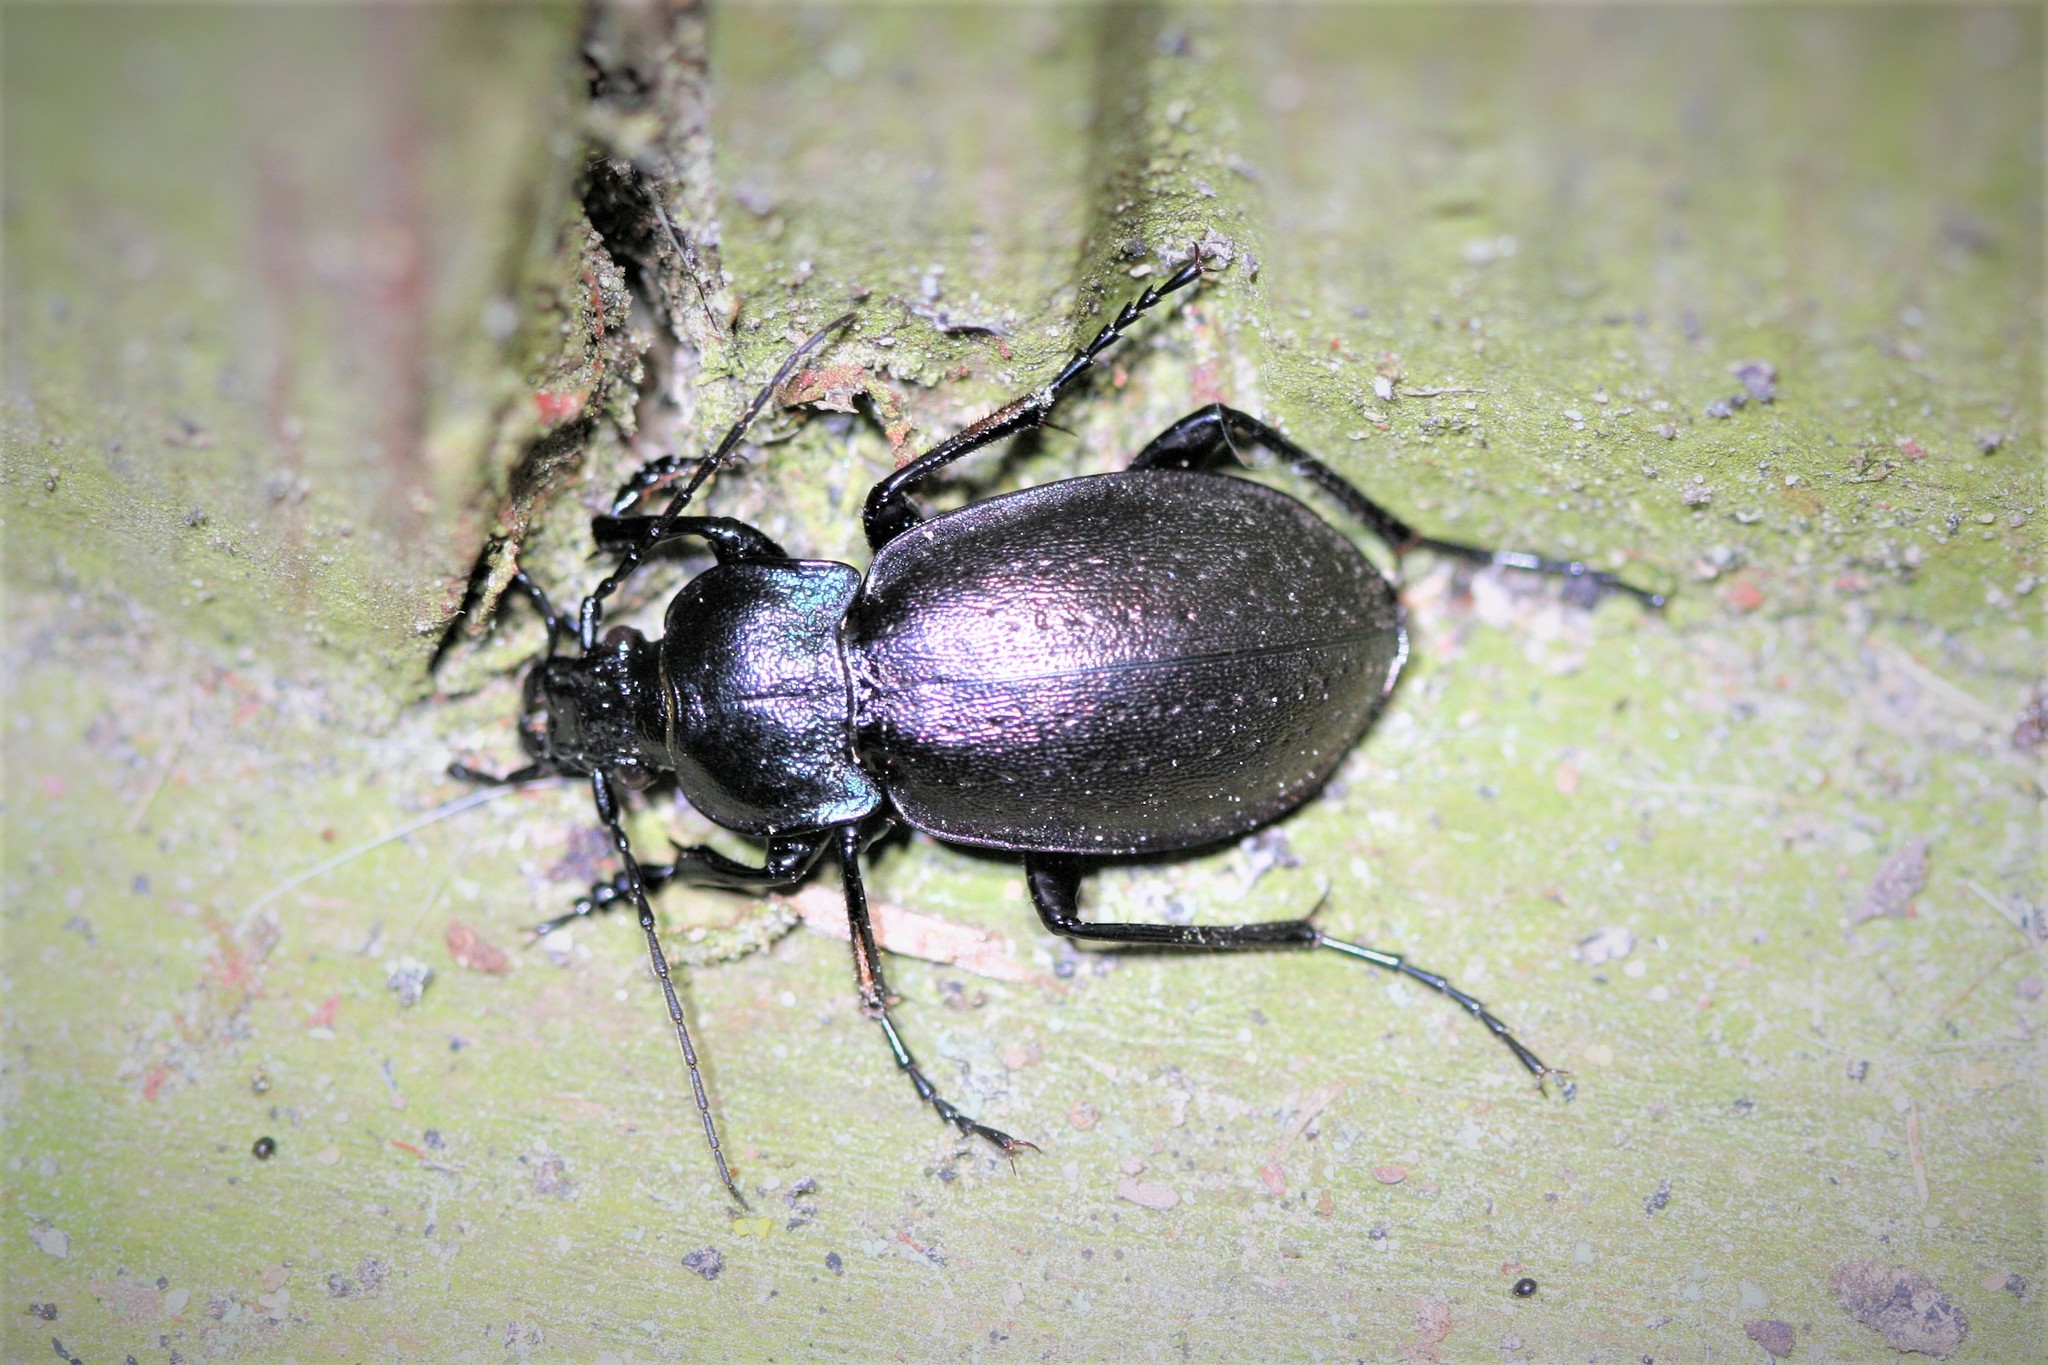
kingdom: Animalia
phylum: Arthropoda
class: Insecta
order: Coleoptera
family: Carabidae
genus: Carabus
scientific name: Carabus nemoralis
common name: European ground beetle
